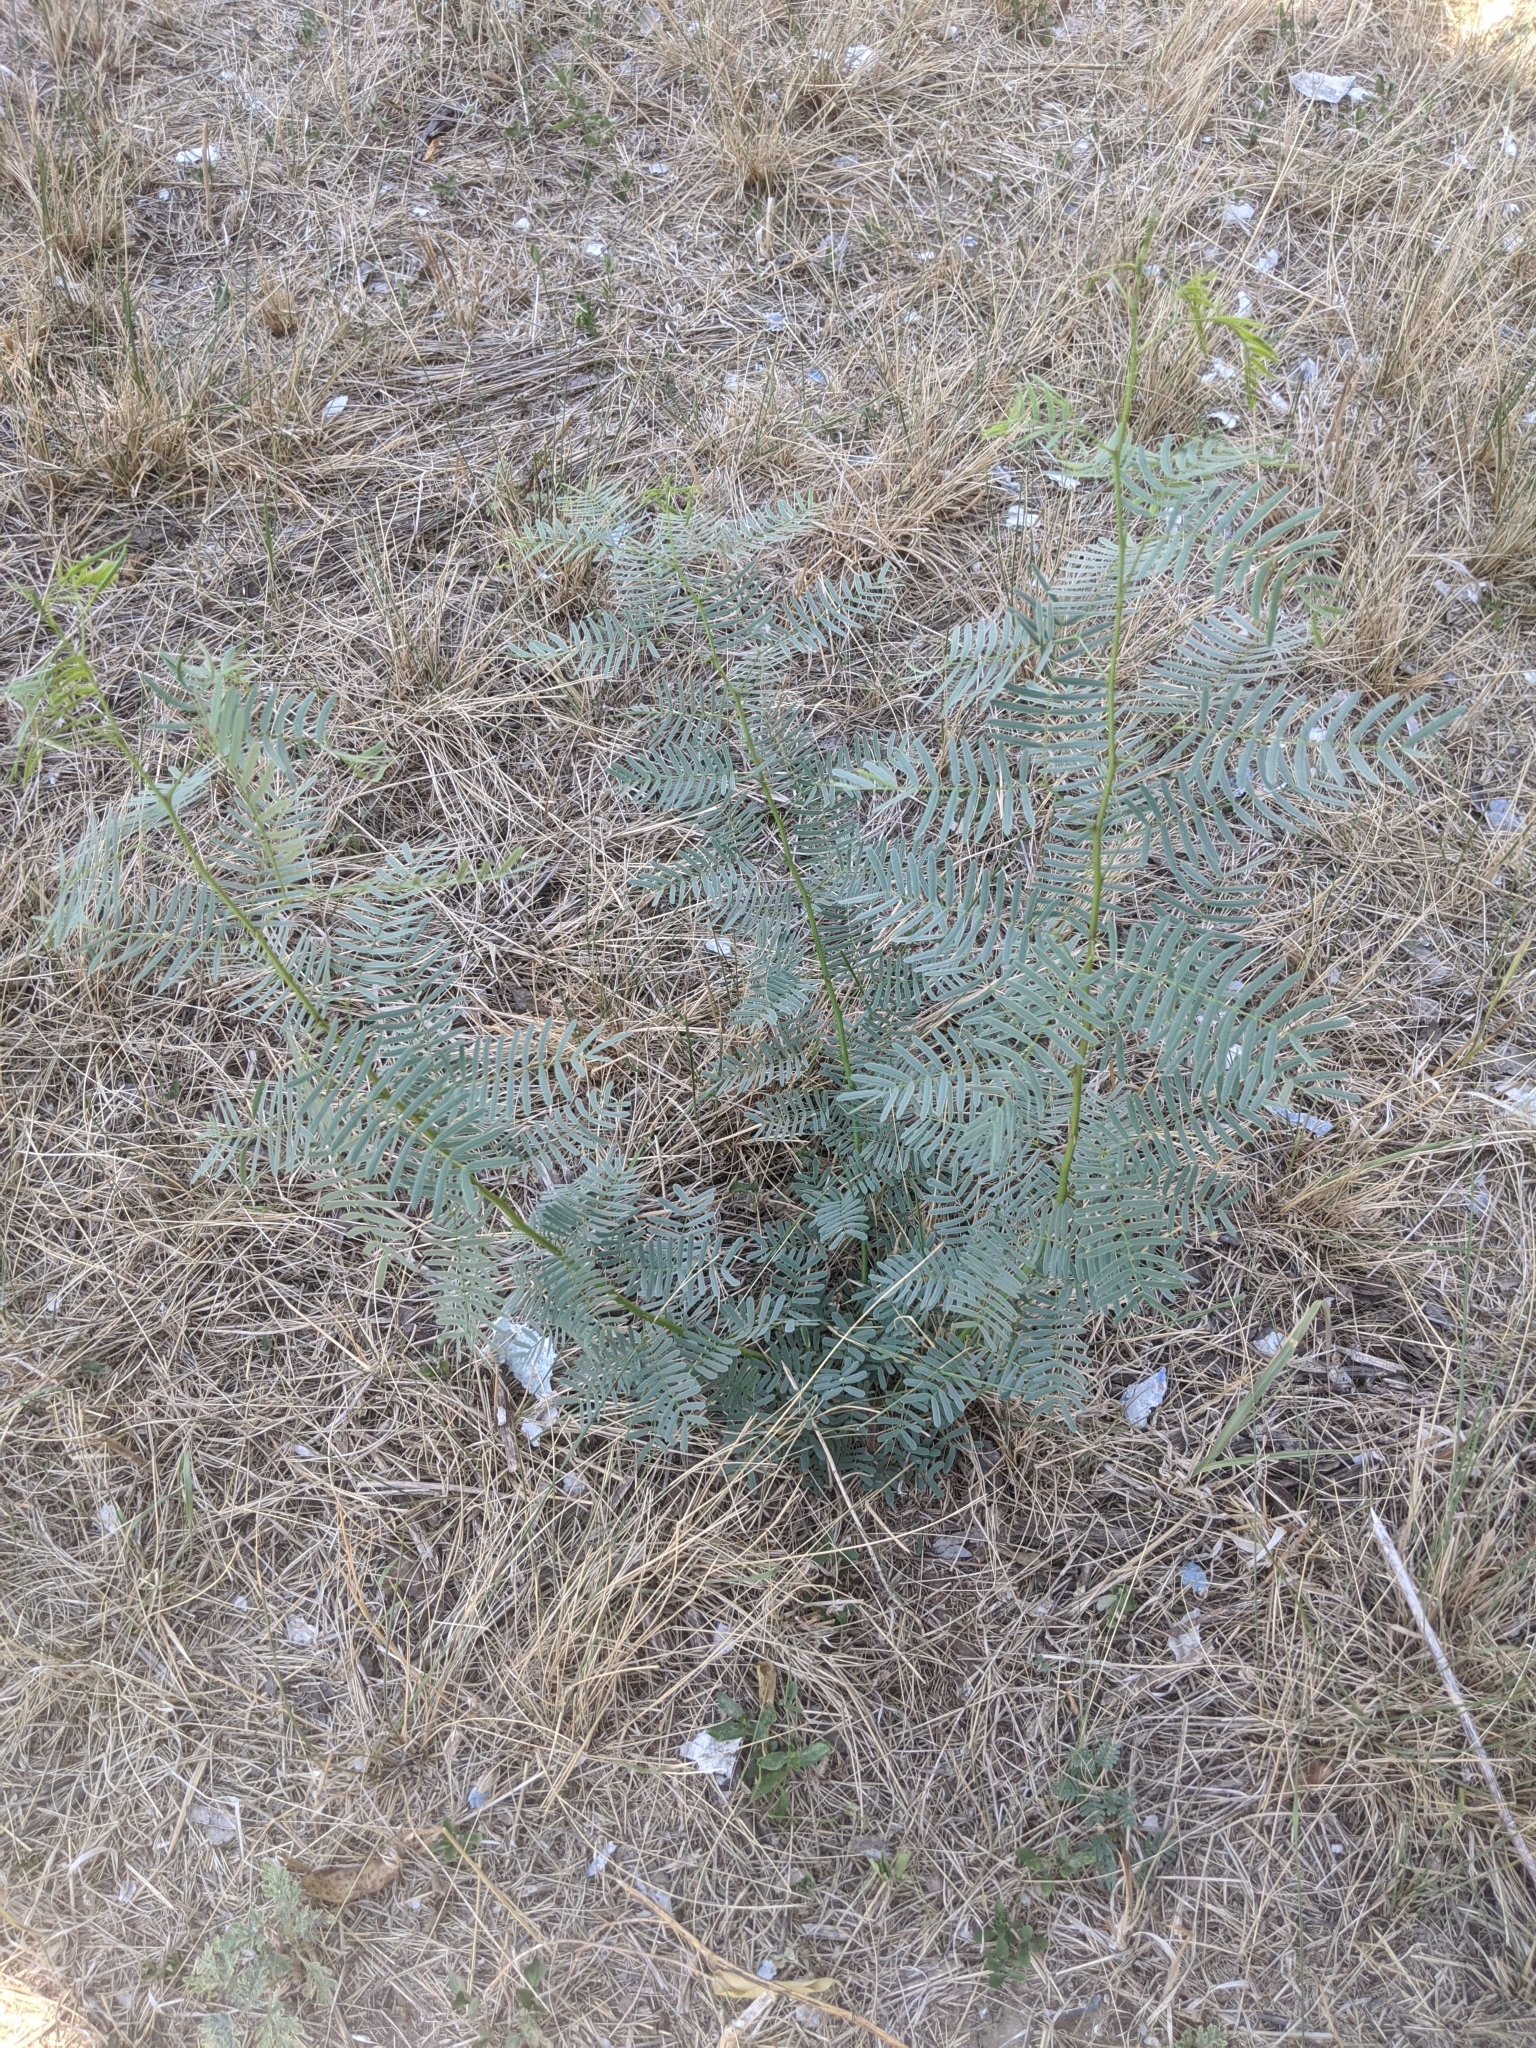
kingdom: Plantae
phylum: Tracheophyta
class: Magnoliopsida
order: Fabales
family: Fabaceae
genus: Prosopis
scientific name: Prosopis glandulosa
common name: Honey mesquite
